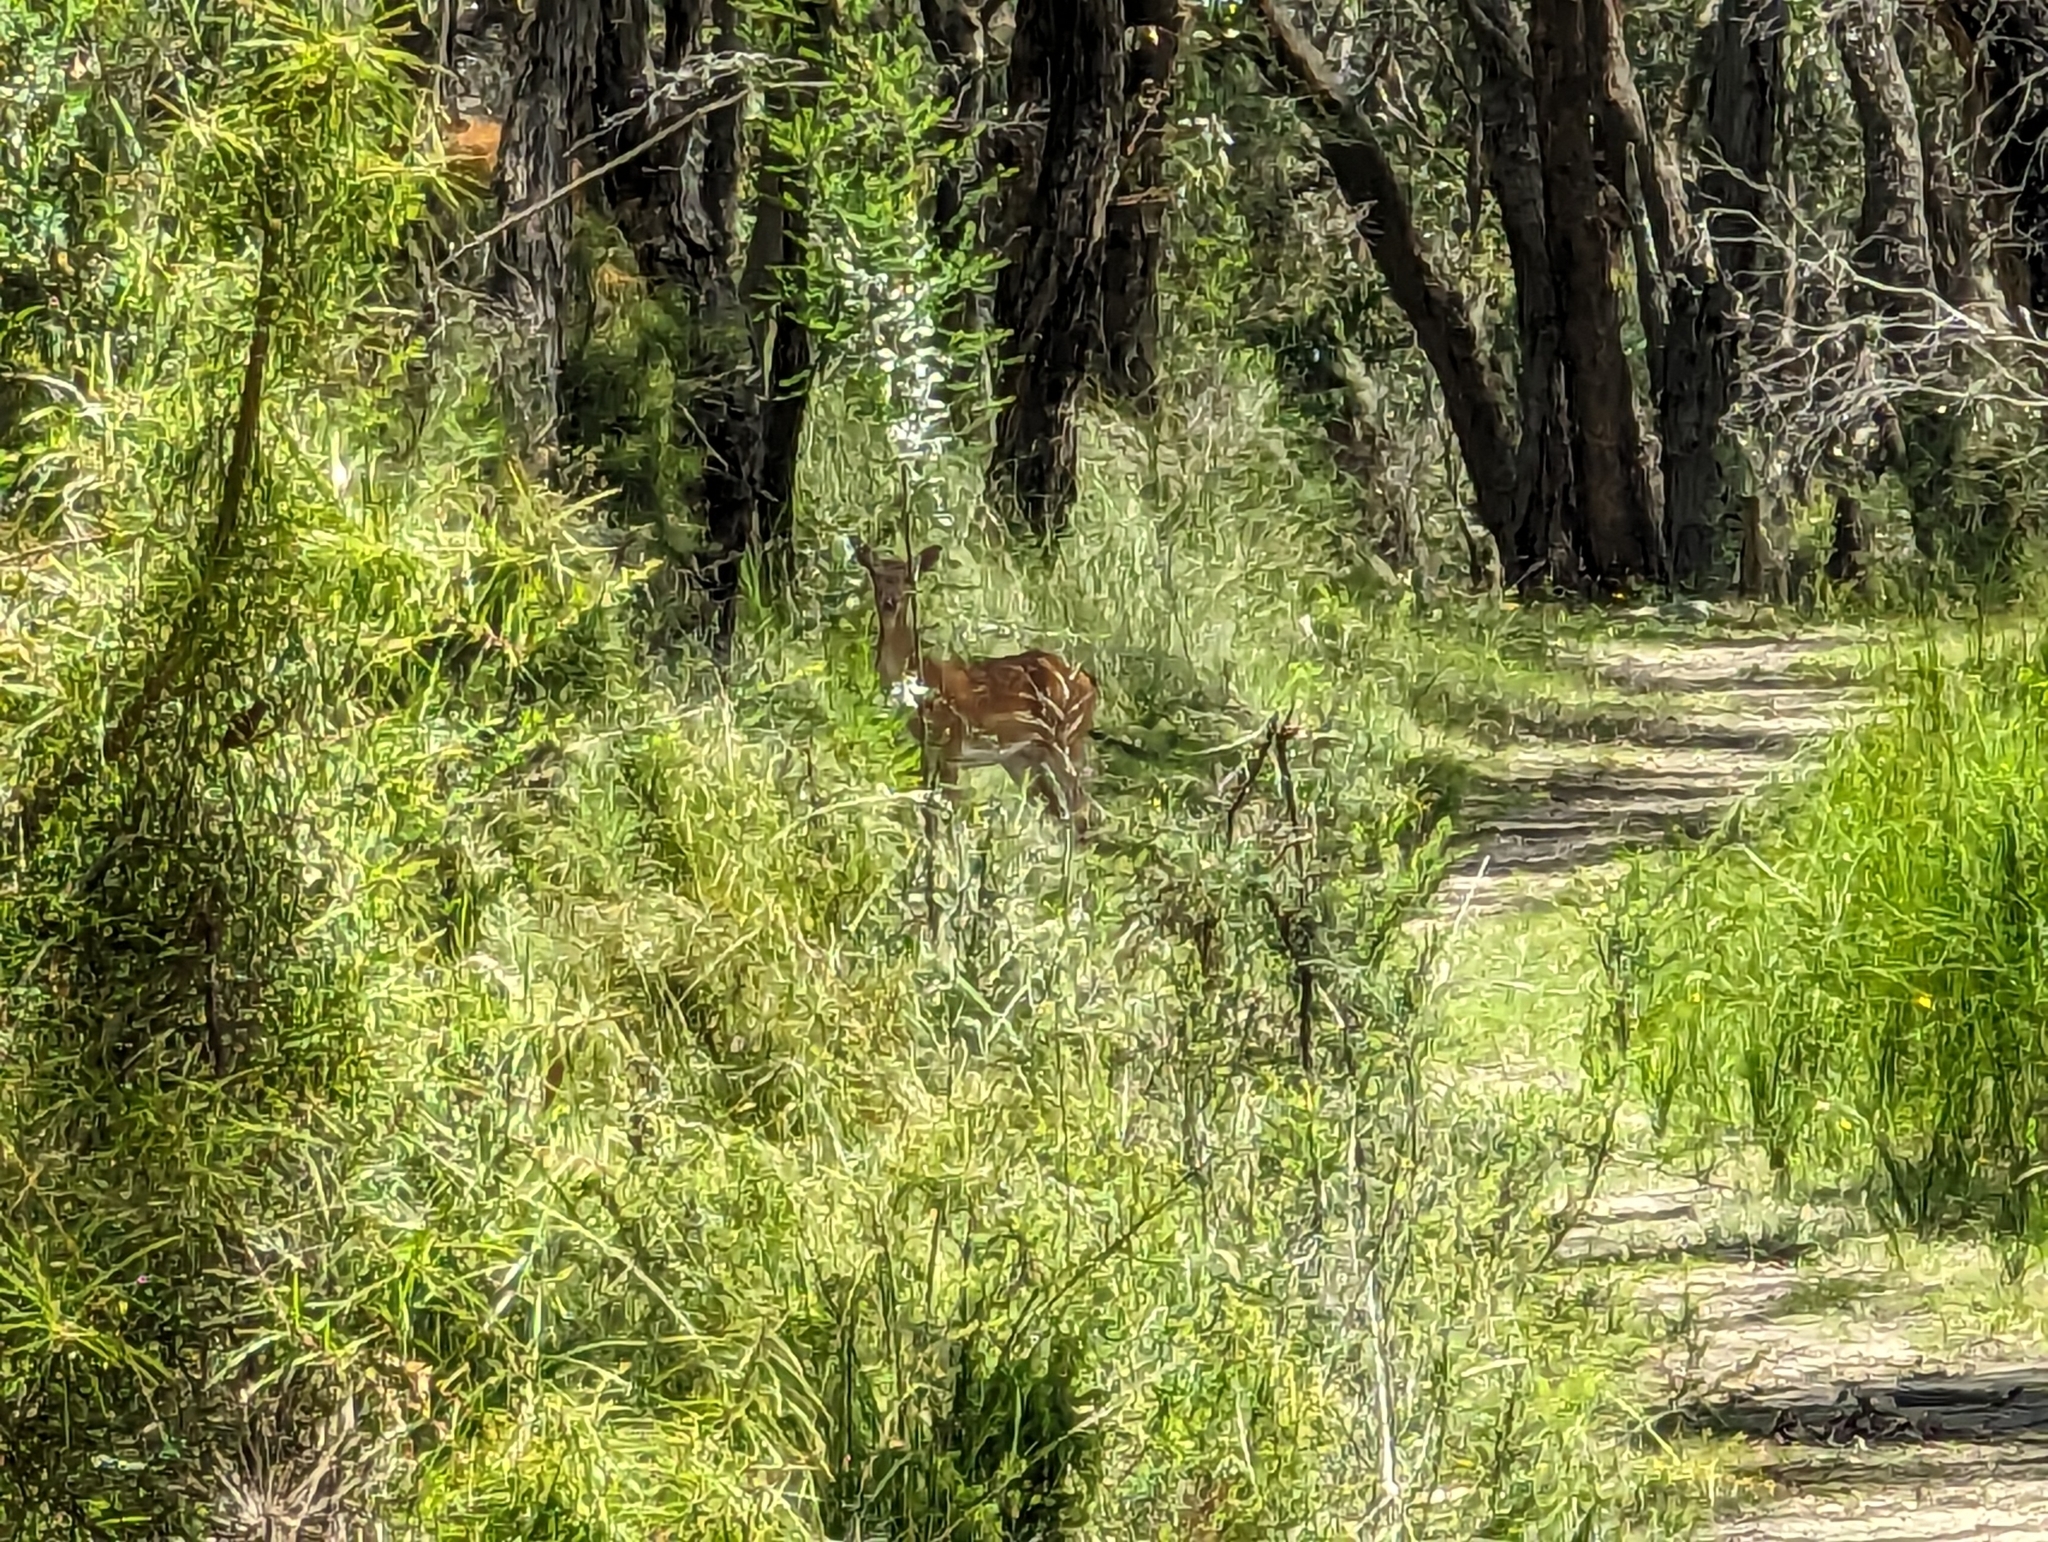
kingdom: Animalia
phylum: Chordata
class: Mammalia
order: Artiodactyla
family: Cervidae
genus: Dama
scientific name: Dama dama
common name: Fallow deer
